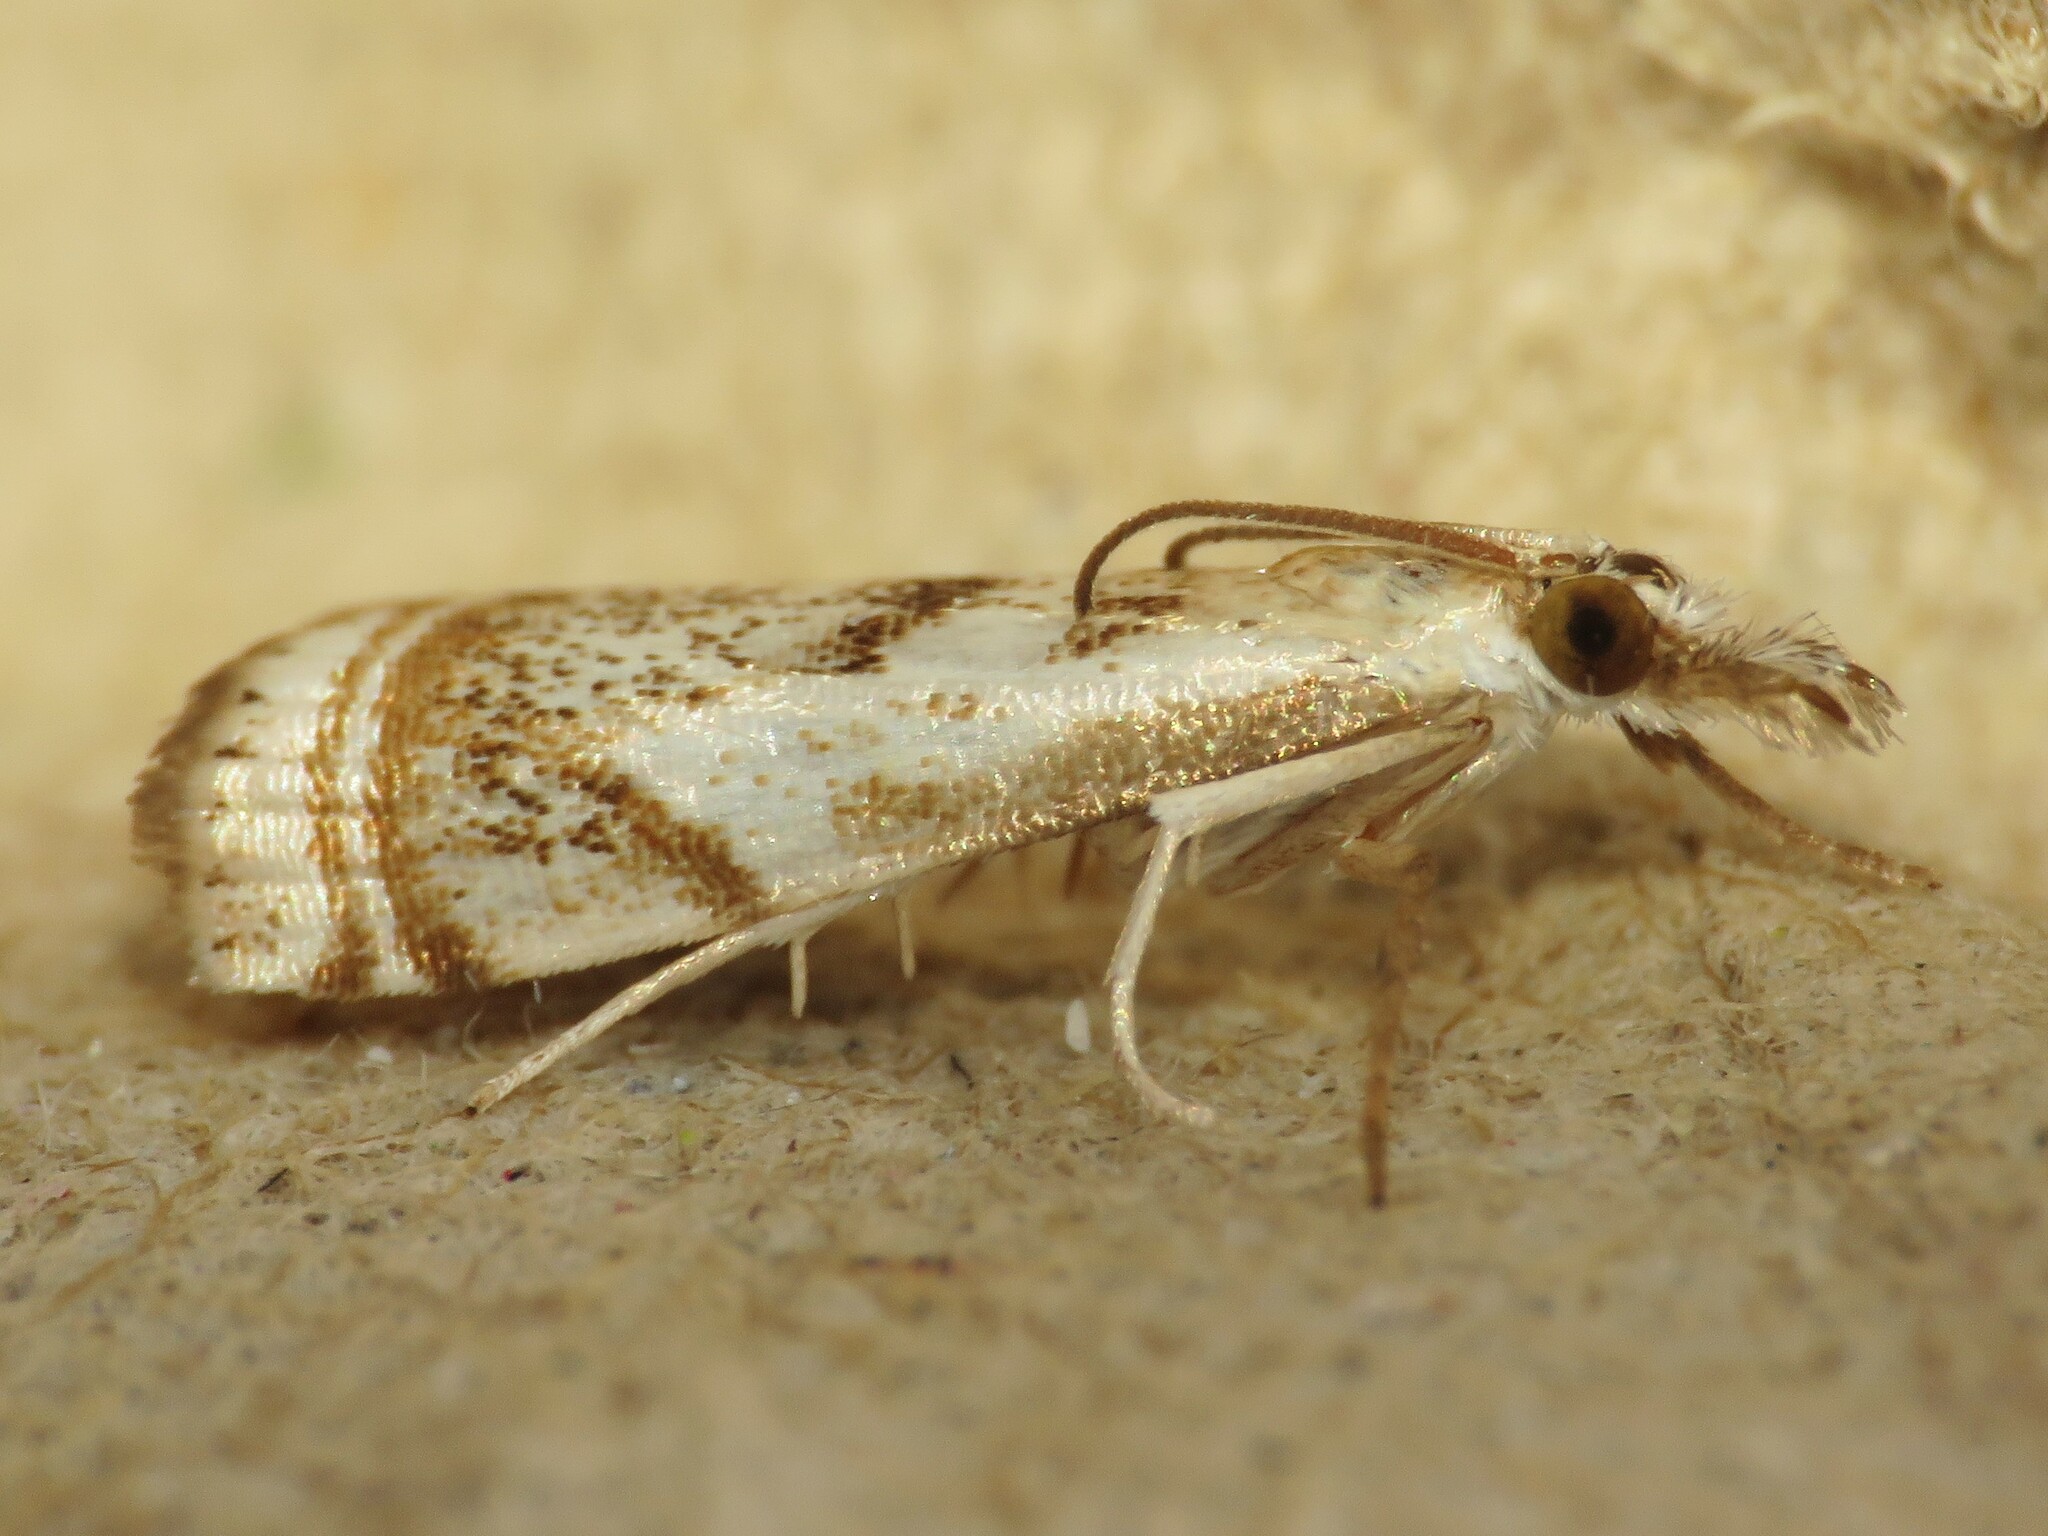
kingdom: Animalia
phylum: Arthropoda
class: Insecta
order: Lepidoptera
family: Crambidae
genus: Microcrambus
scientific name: Microcrambus elegans
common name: Elegant grass-veneer
